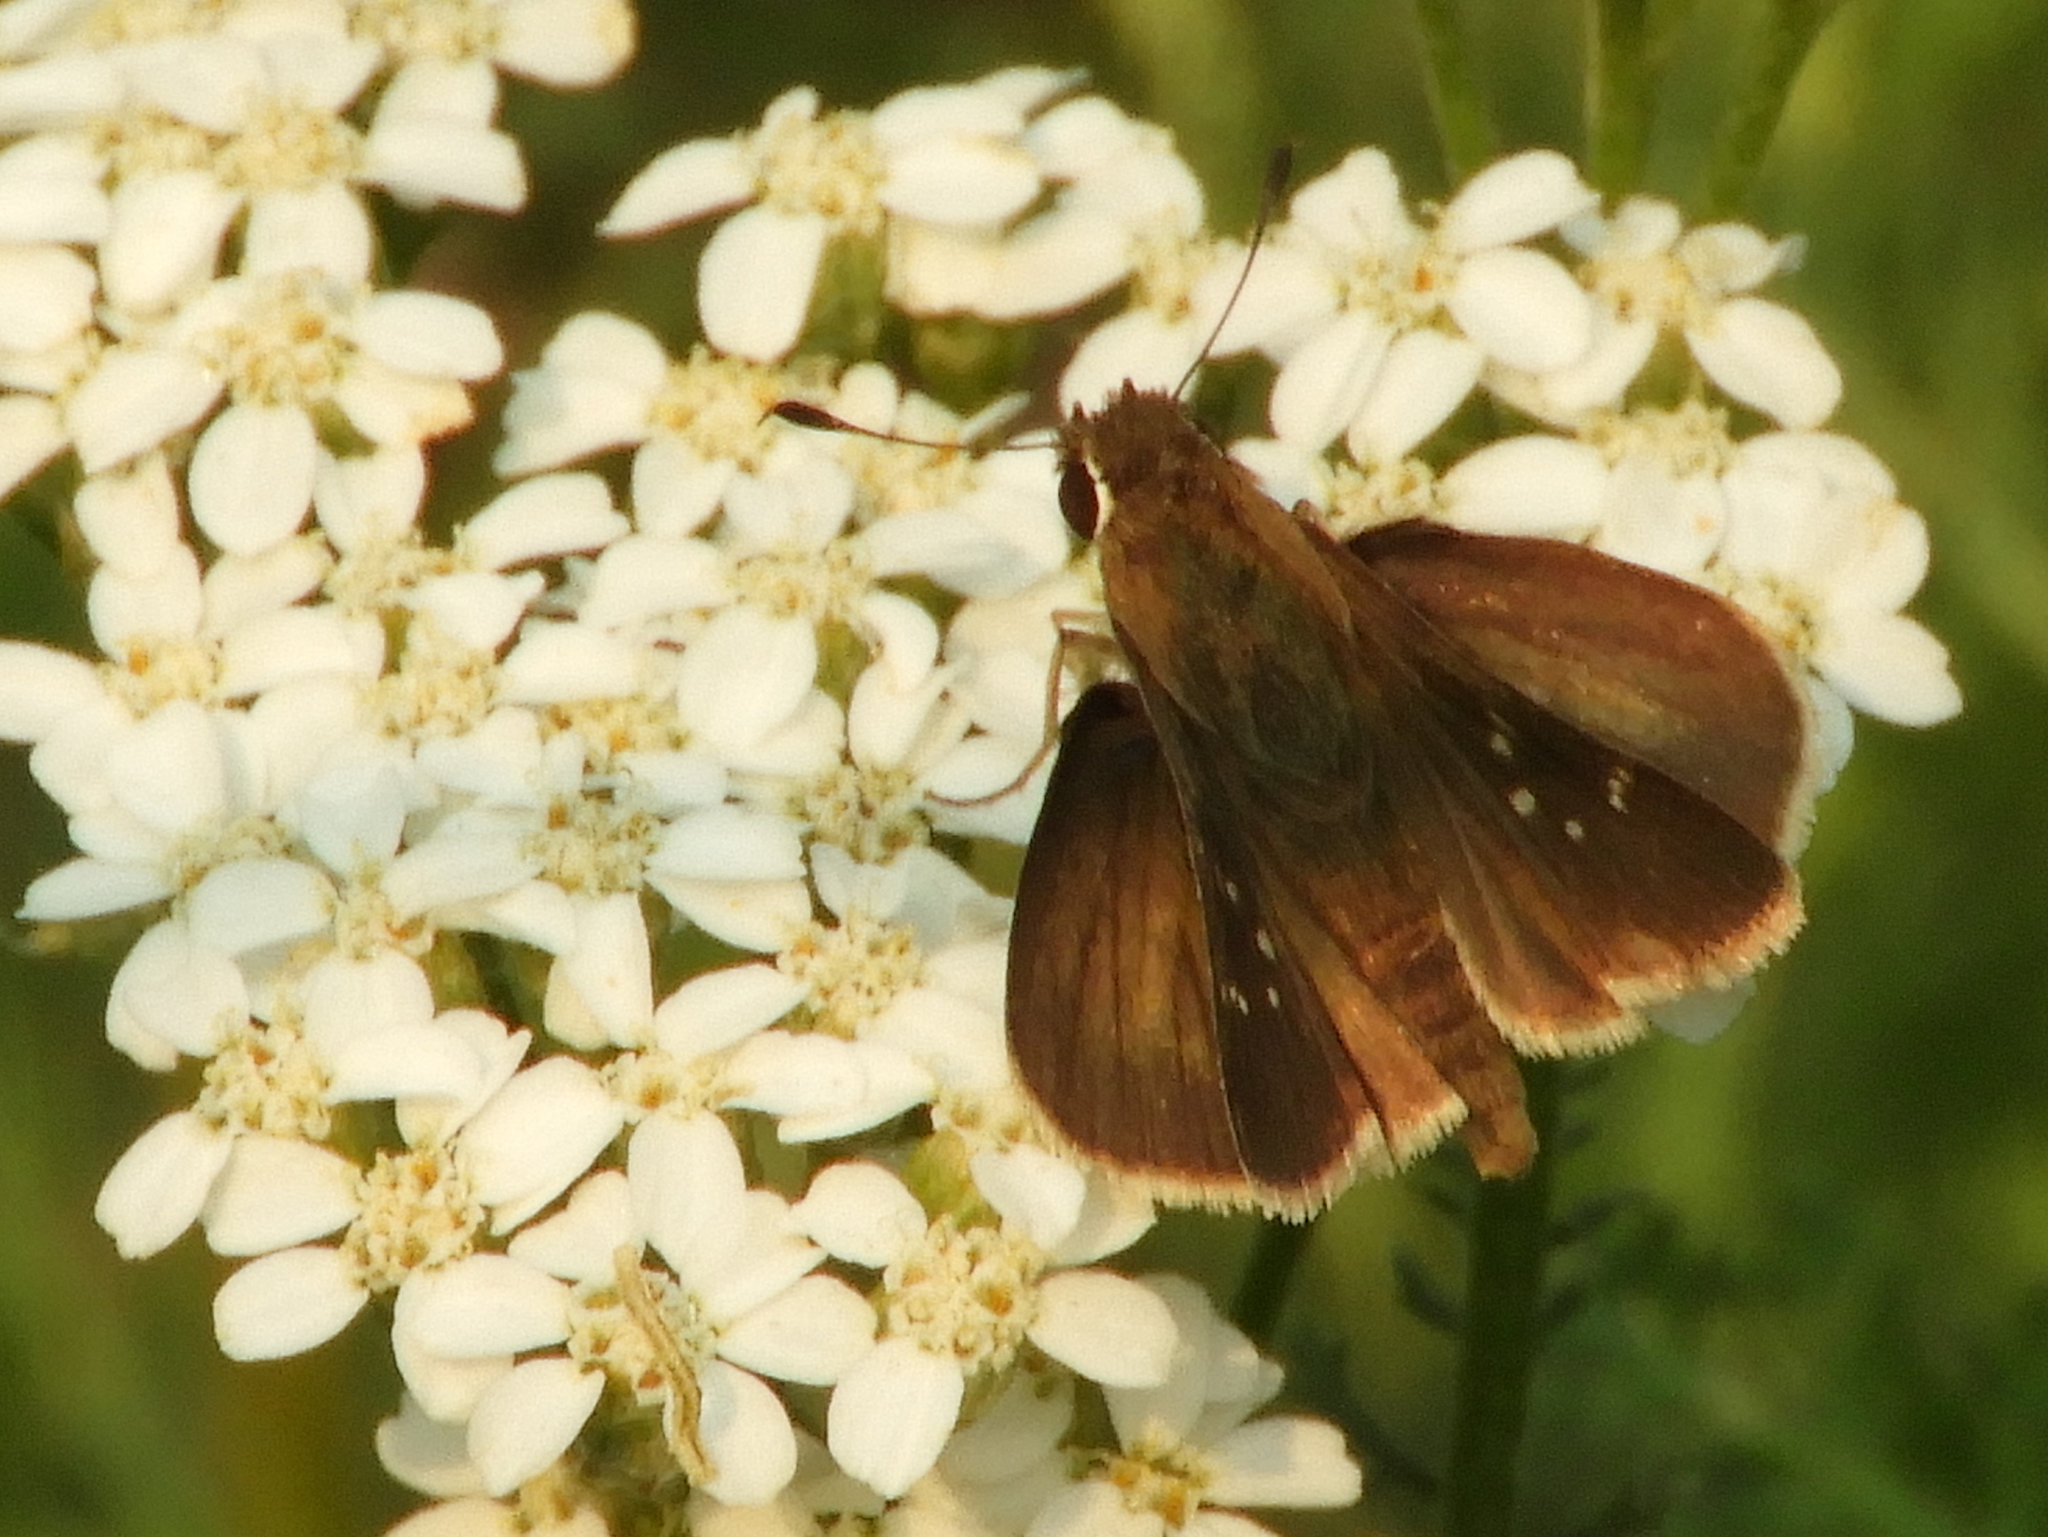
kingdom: Animalia
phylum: Arthropoda
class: Insecta
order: Lepidoptera
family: Hesperiidae
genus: Lerodea
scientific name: Lerodea eufala
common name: Eufala skipper
